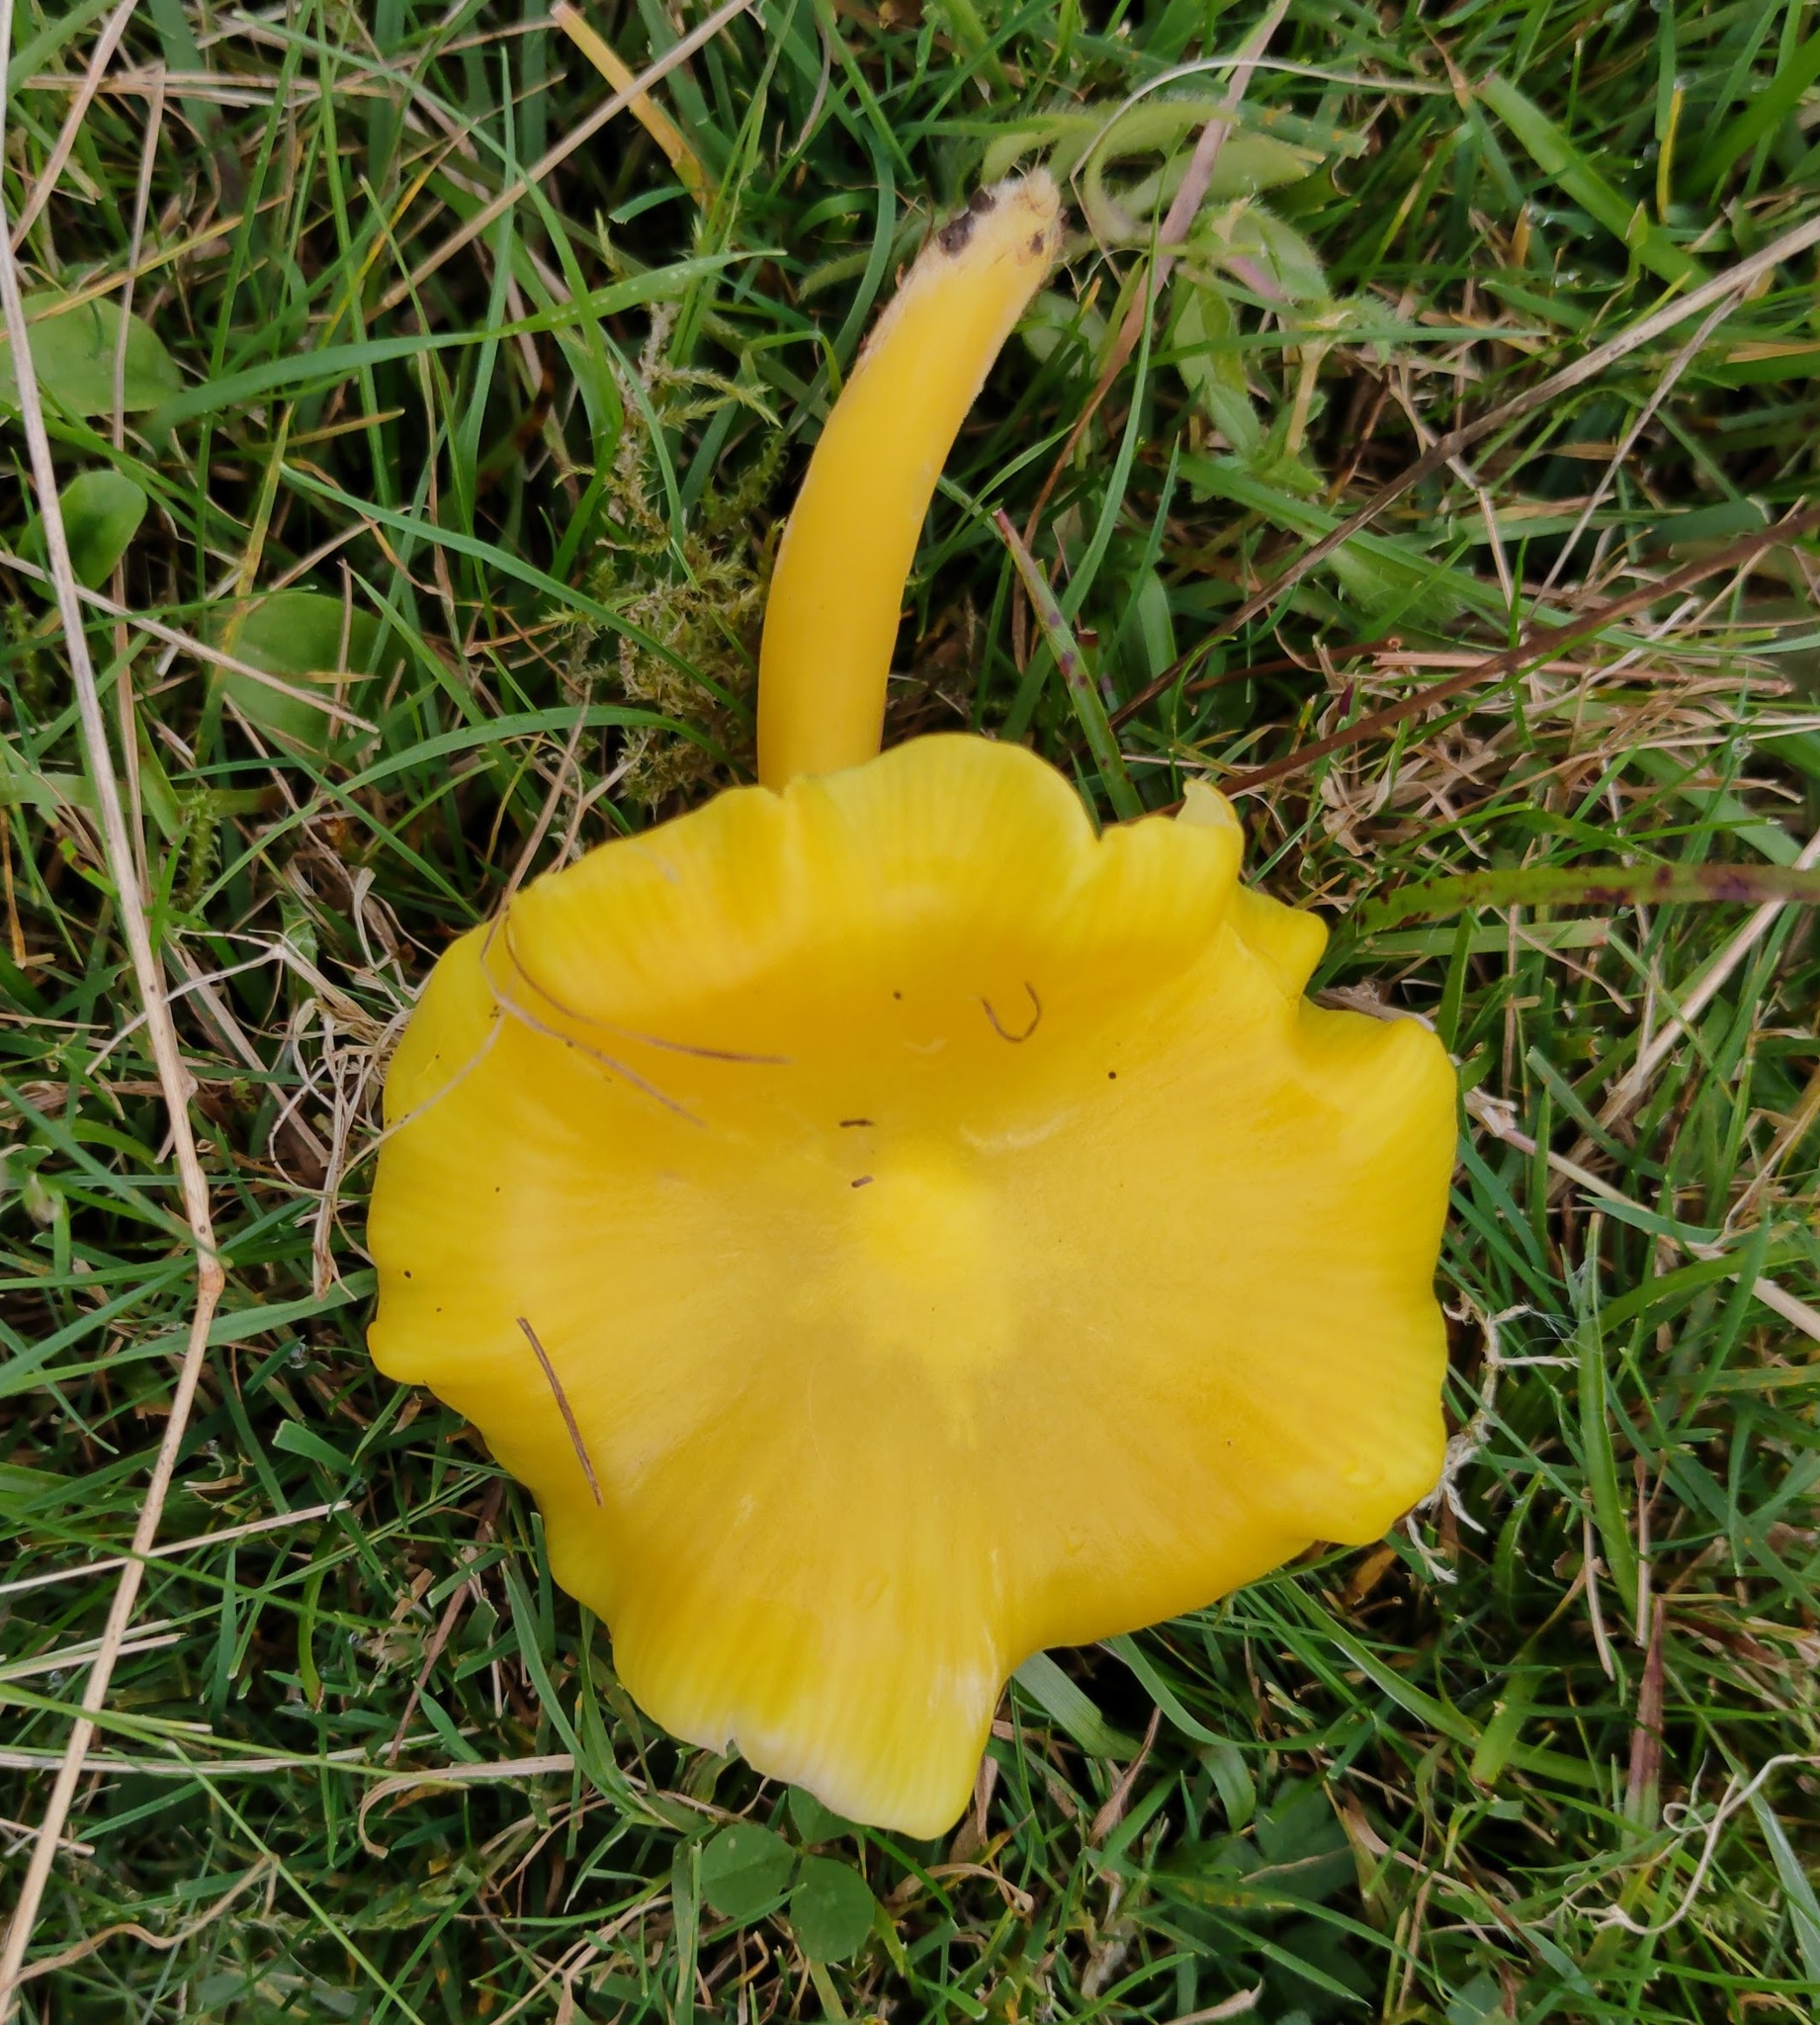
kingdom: Fungi
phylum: Basidiomycota
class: Agaricomycetes
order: Agaricales
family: Hygrophoraceae
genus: Hygrocybe
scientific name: Hygrocybe chlorophana
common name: Golden waxcap
